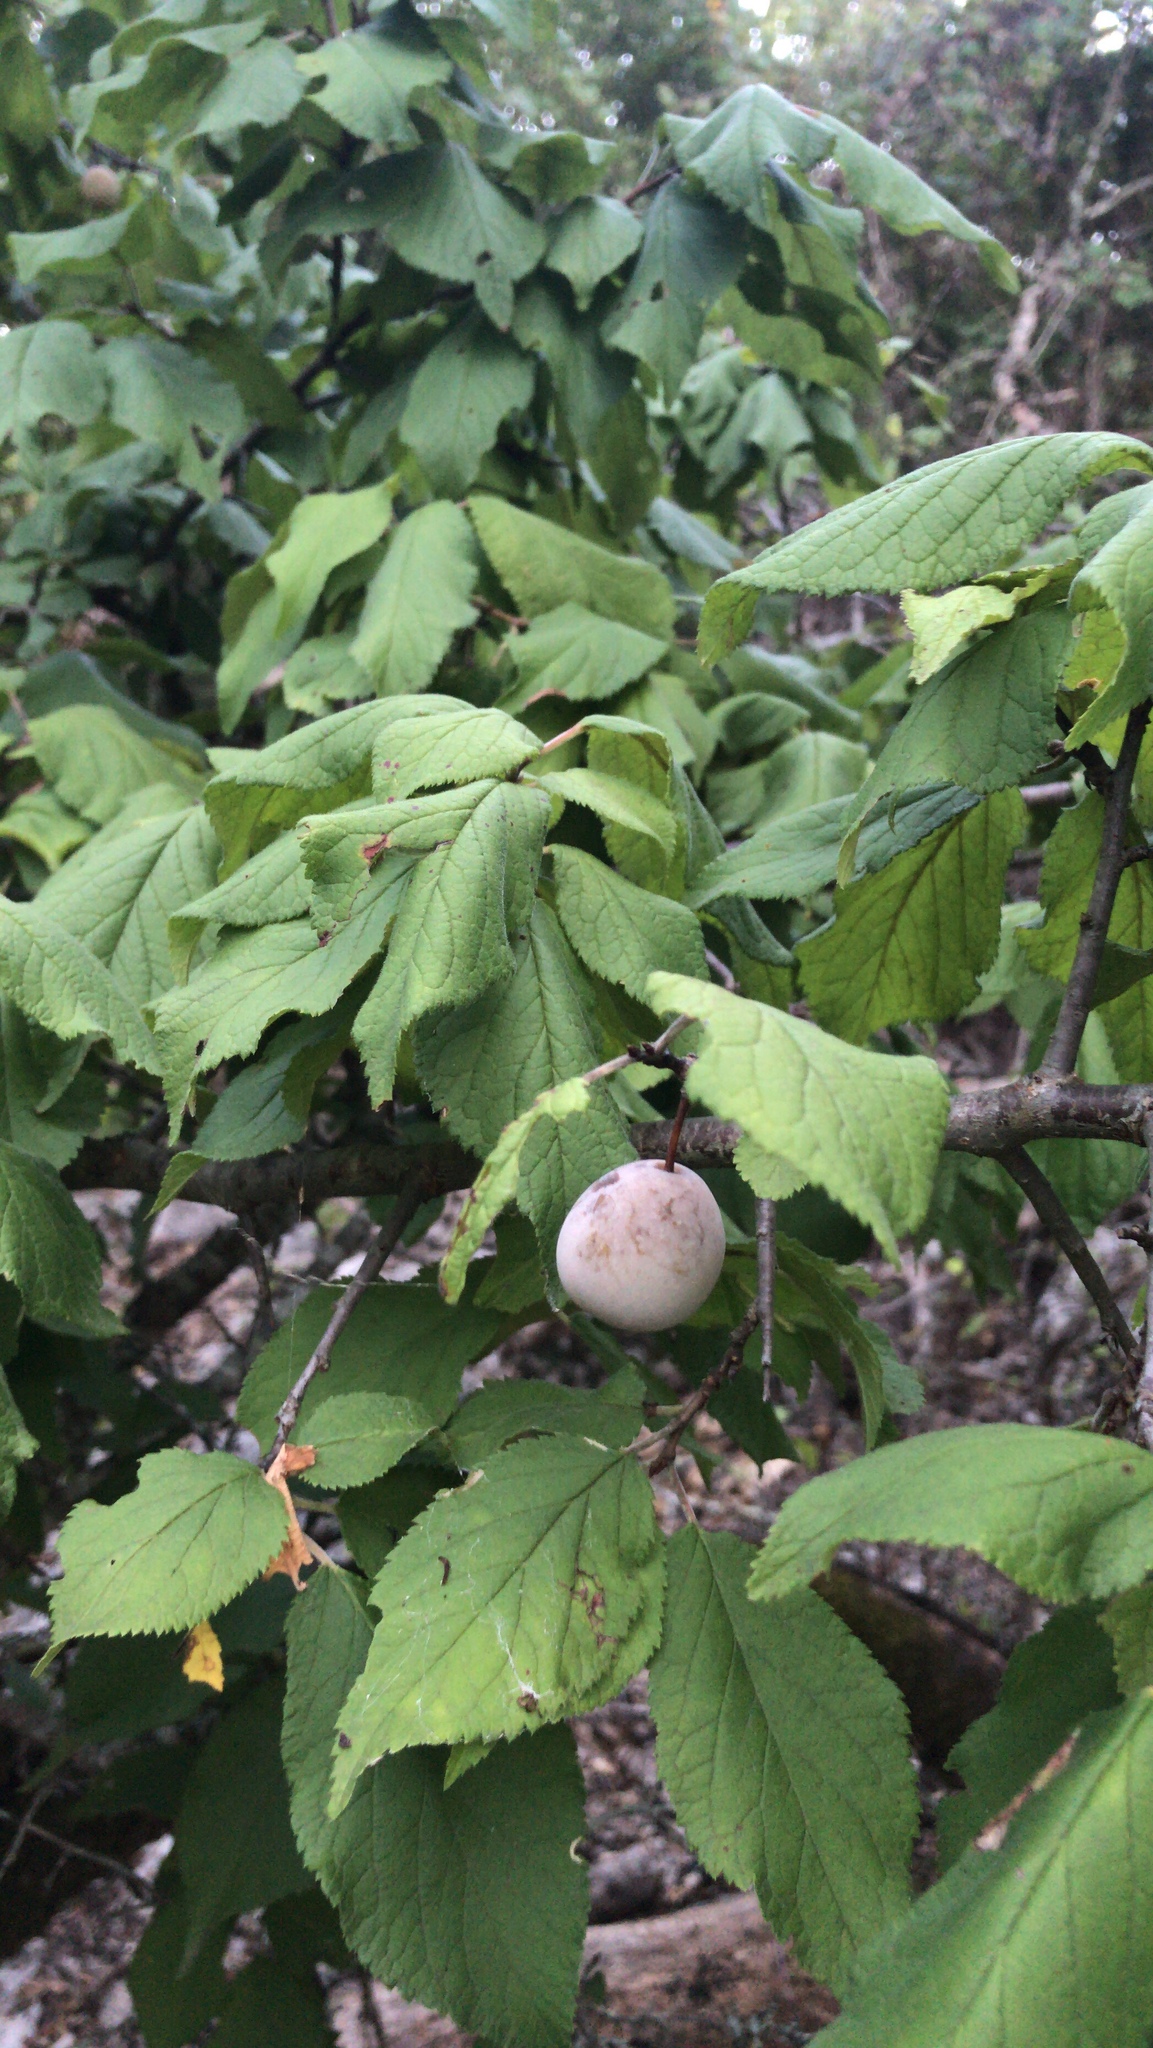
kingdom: Plantae
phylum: Tracheophyta
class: Magnoliopsida
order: Rosales
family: Rosaceae
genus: Prunus
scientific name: Prunus mexicana
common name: Mexican plum
